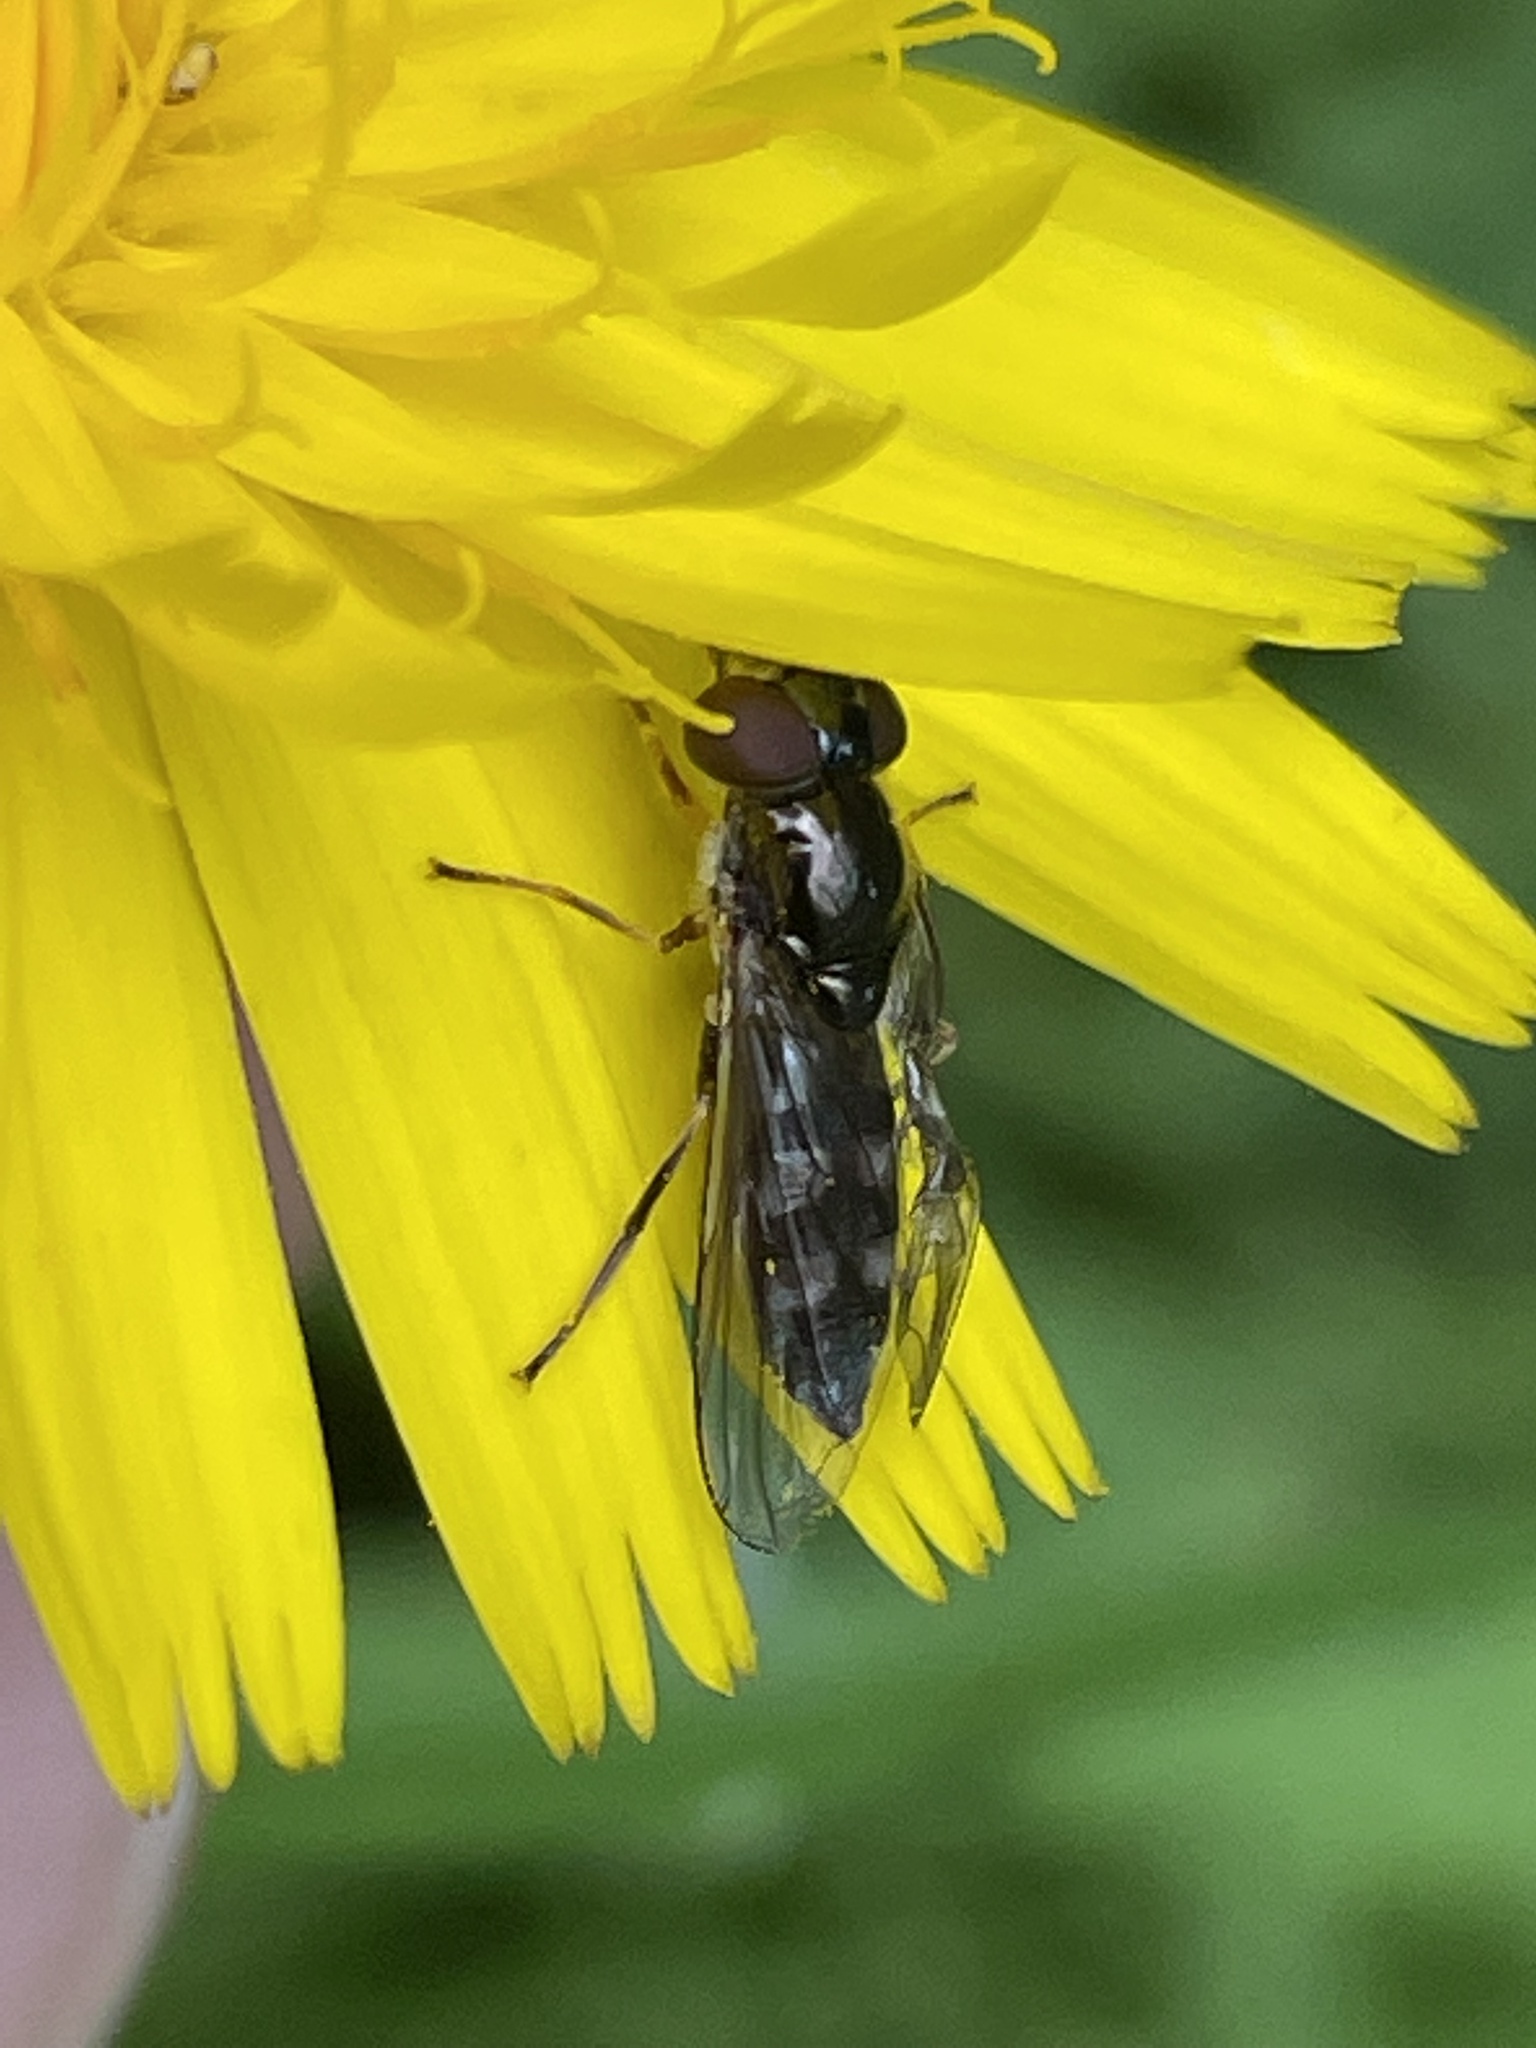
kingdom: Animalia
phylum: Arthropoda
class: Insecta
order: Diptera
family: Syrphidae
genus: Platycheirus
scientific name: Platycheirus albimanus
